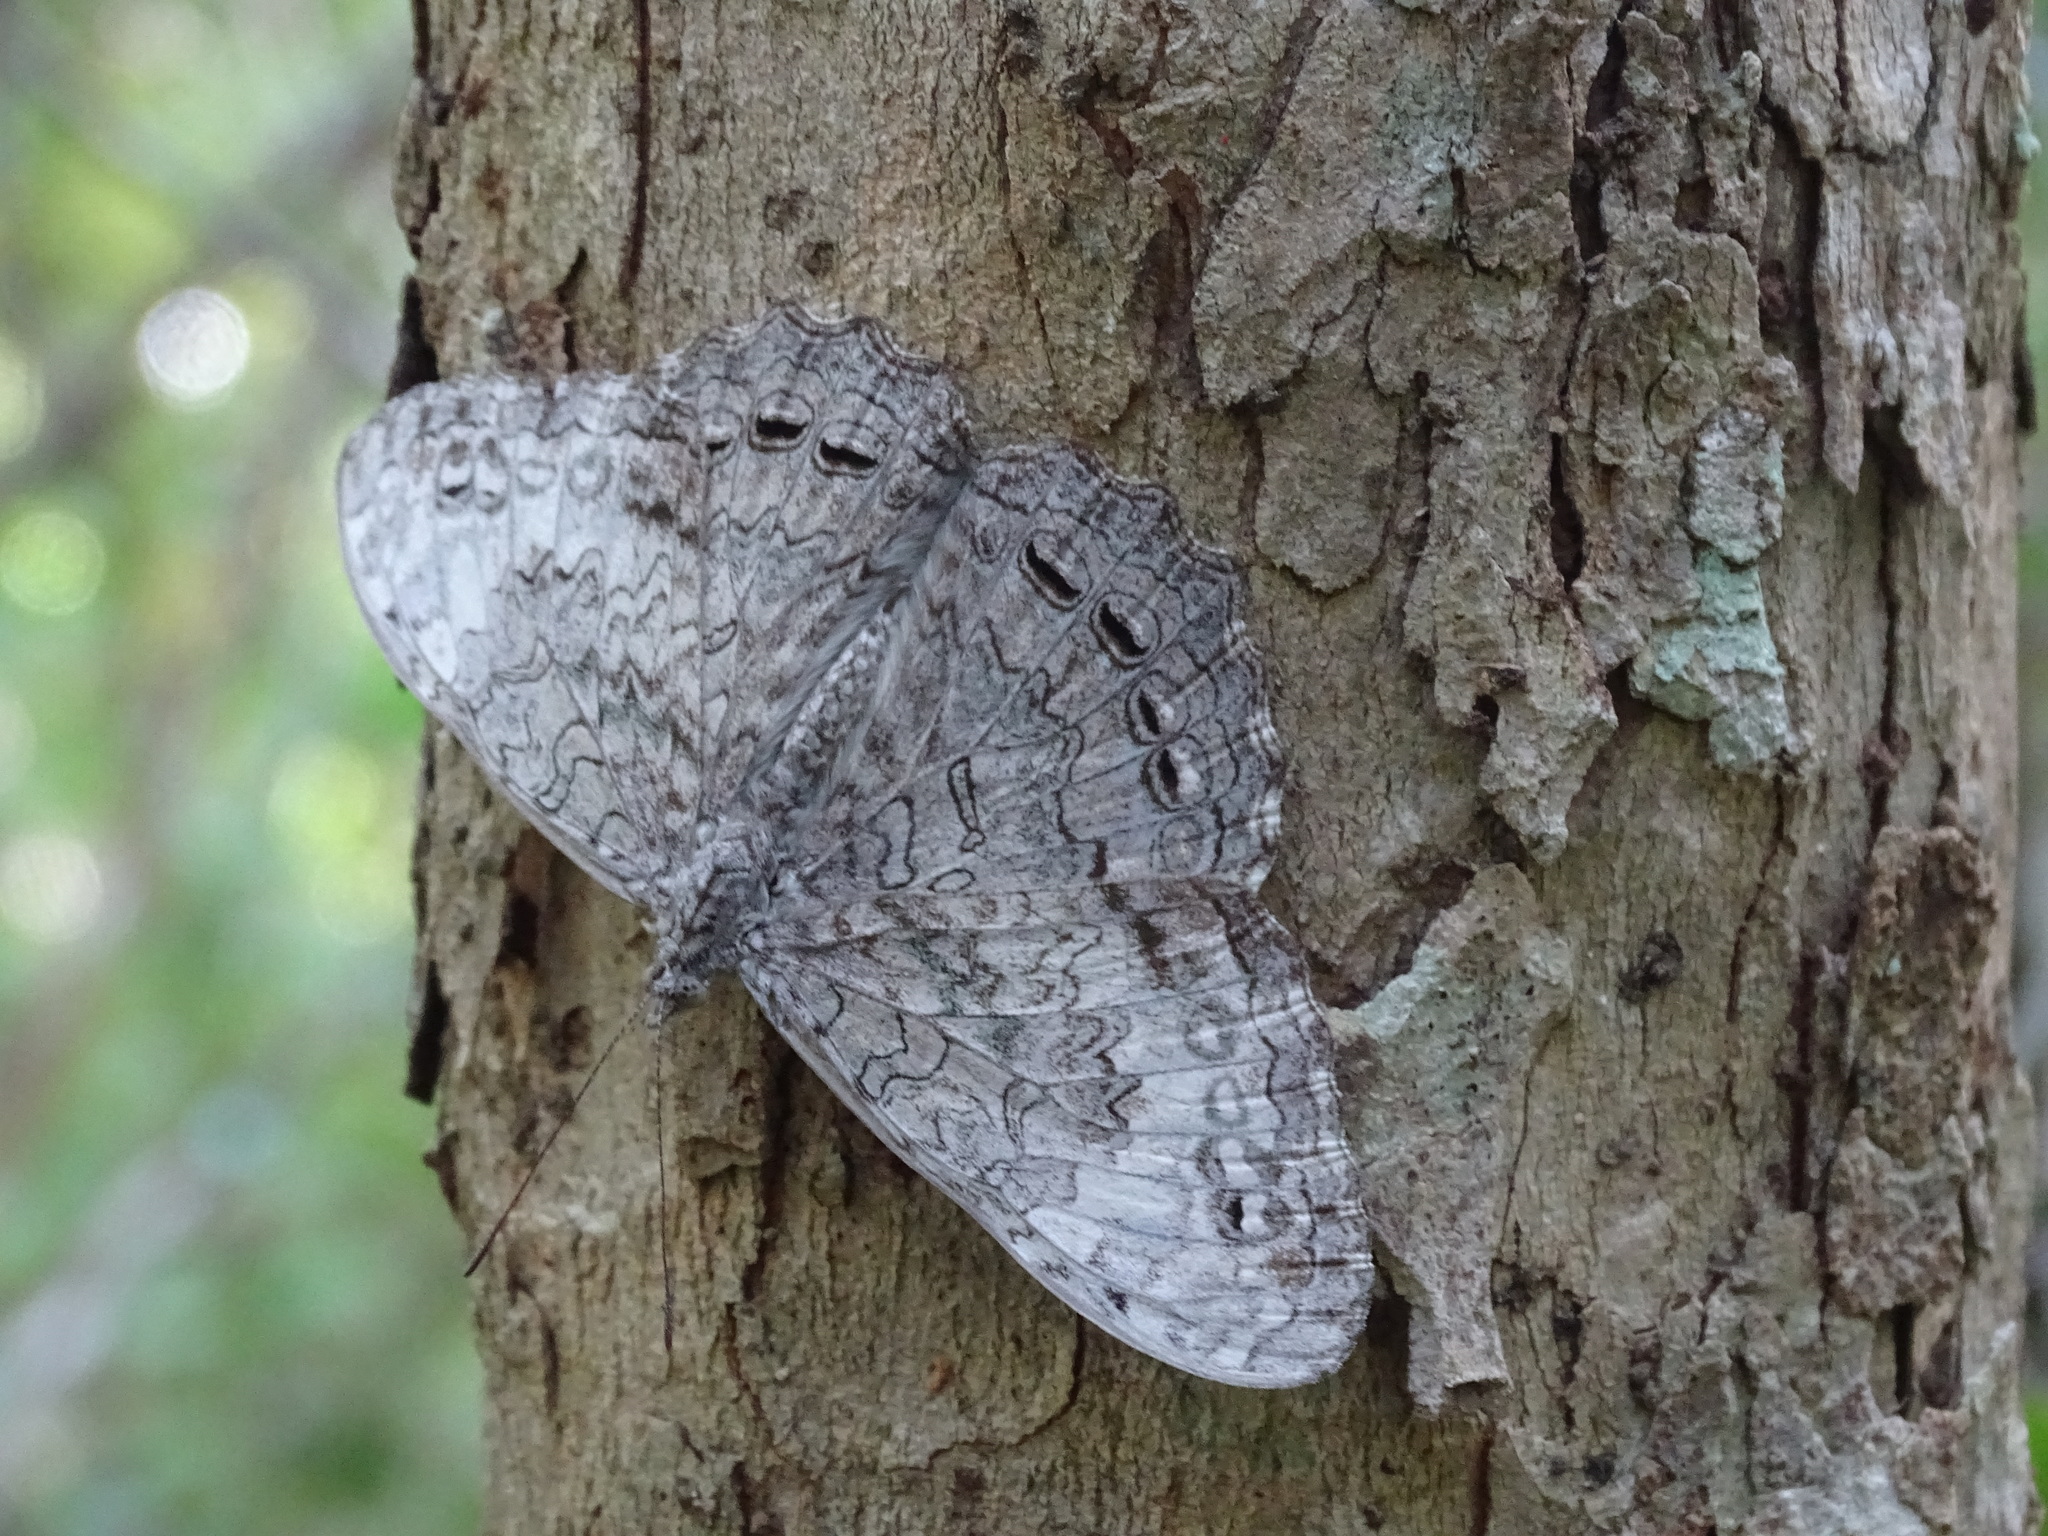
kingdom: Animalia
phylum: Arthropoda
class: Insecta
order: Lepidoptera
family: Nymphalidae
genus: Hamadryas
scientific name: Hamadryas glauconome
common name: Glaucous cracker
